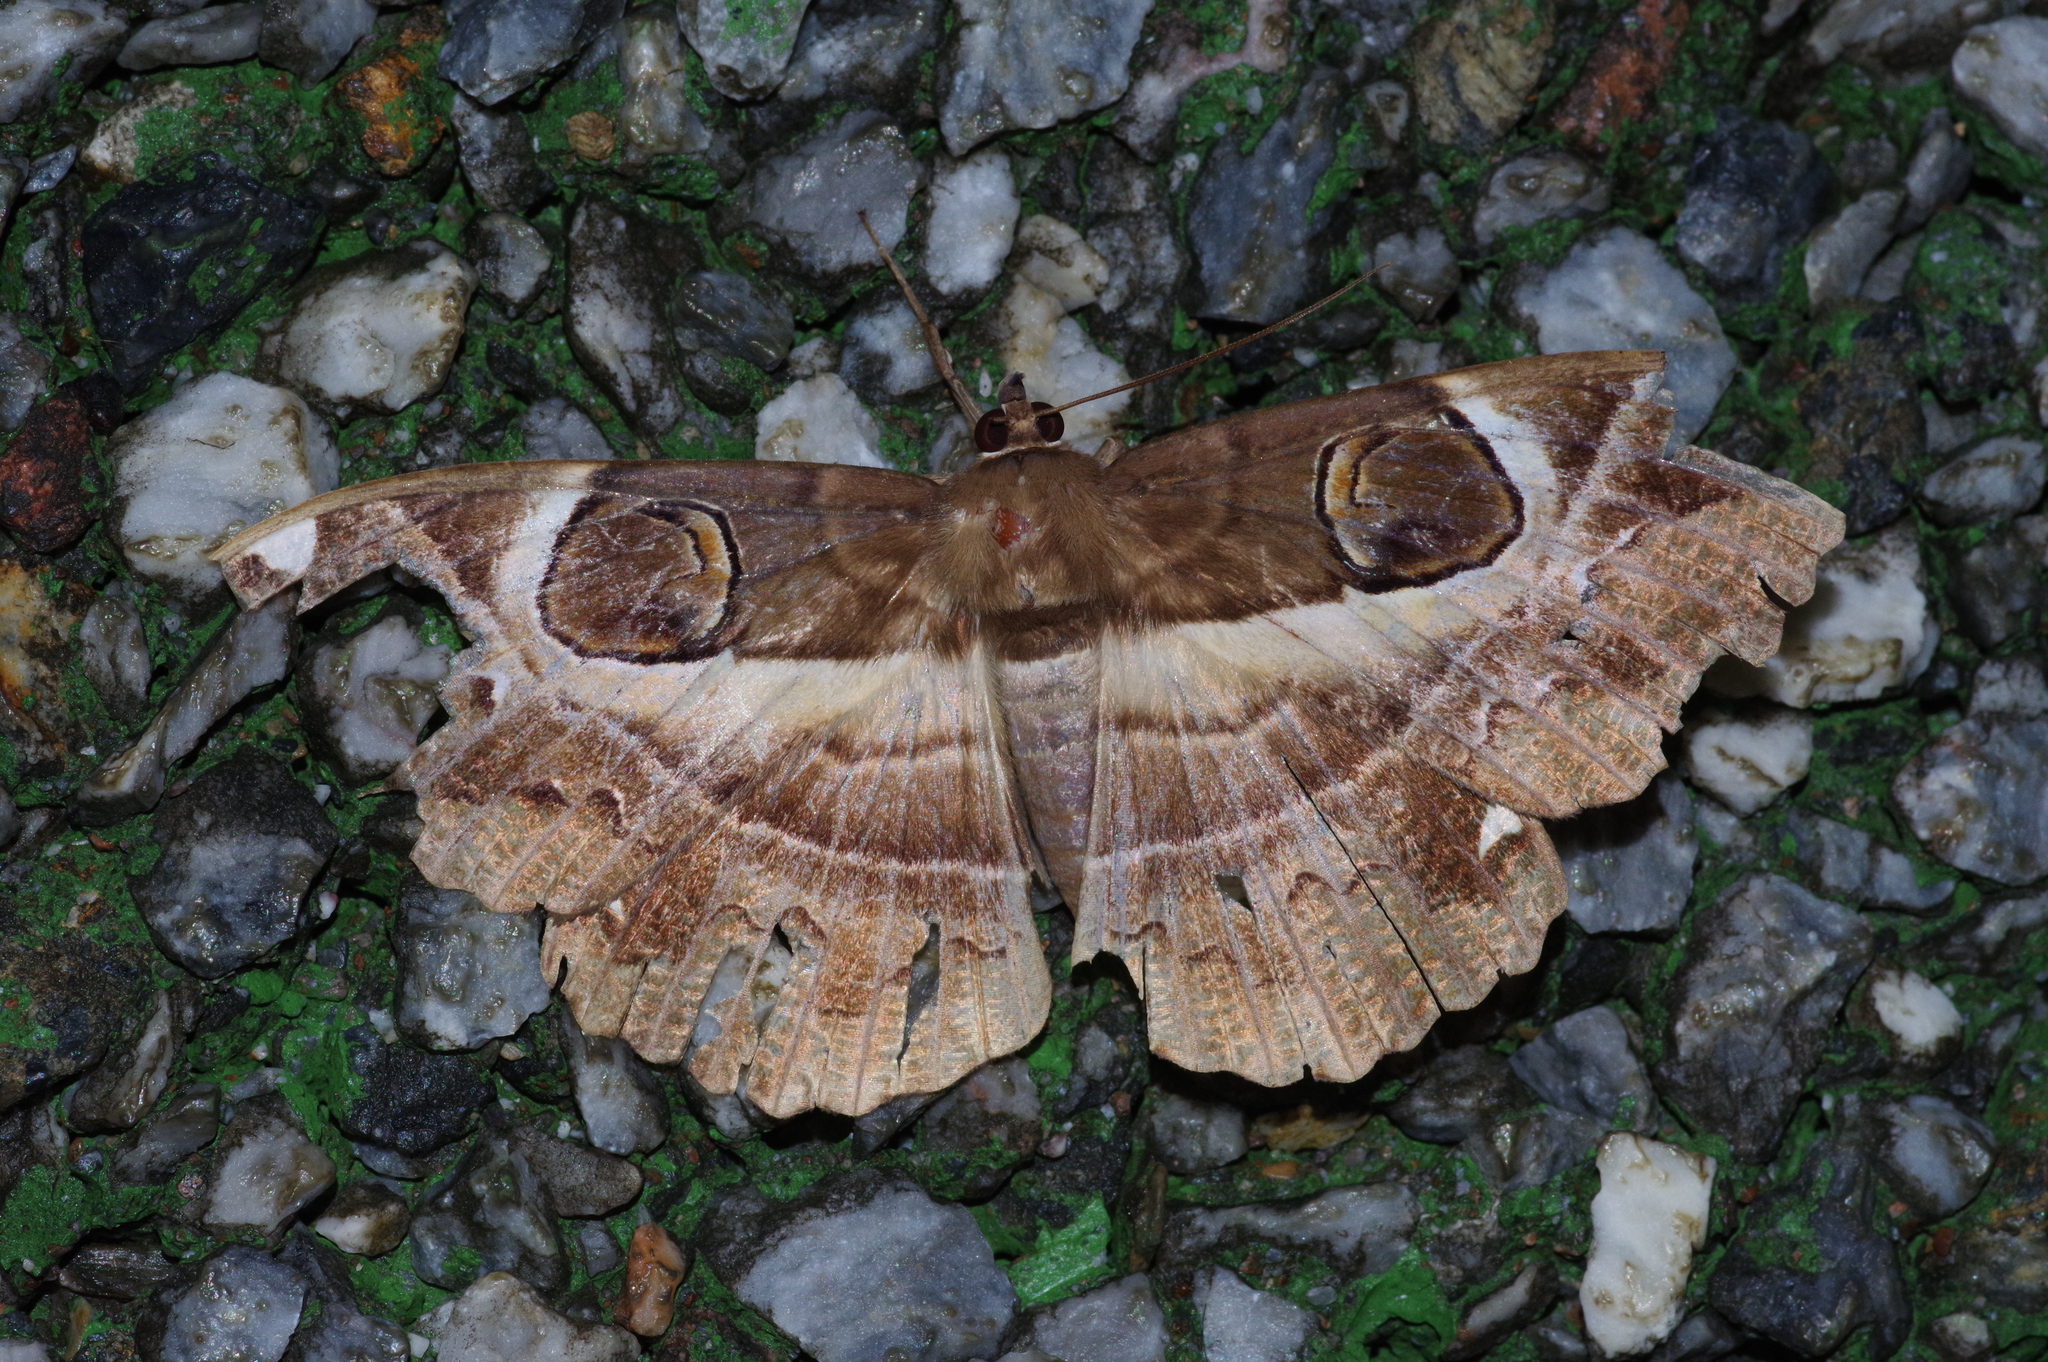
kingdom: Animalia
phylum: Arthropoda
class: Insecta
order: Lepidoptera
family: Erebidae
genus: Erebus
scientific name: Erebus ephesperis
